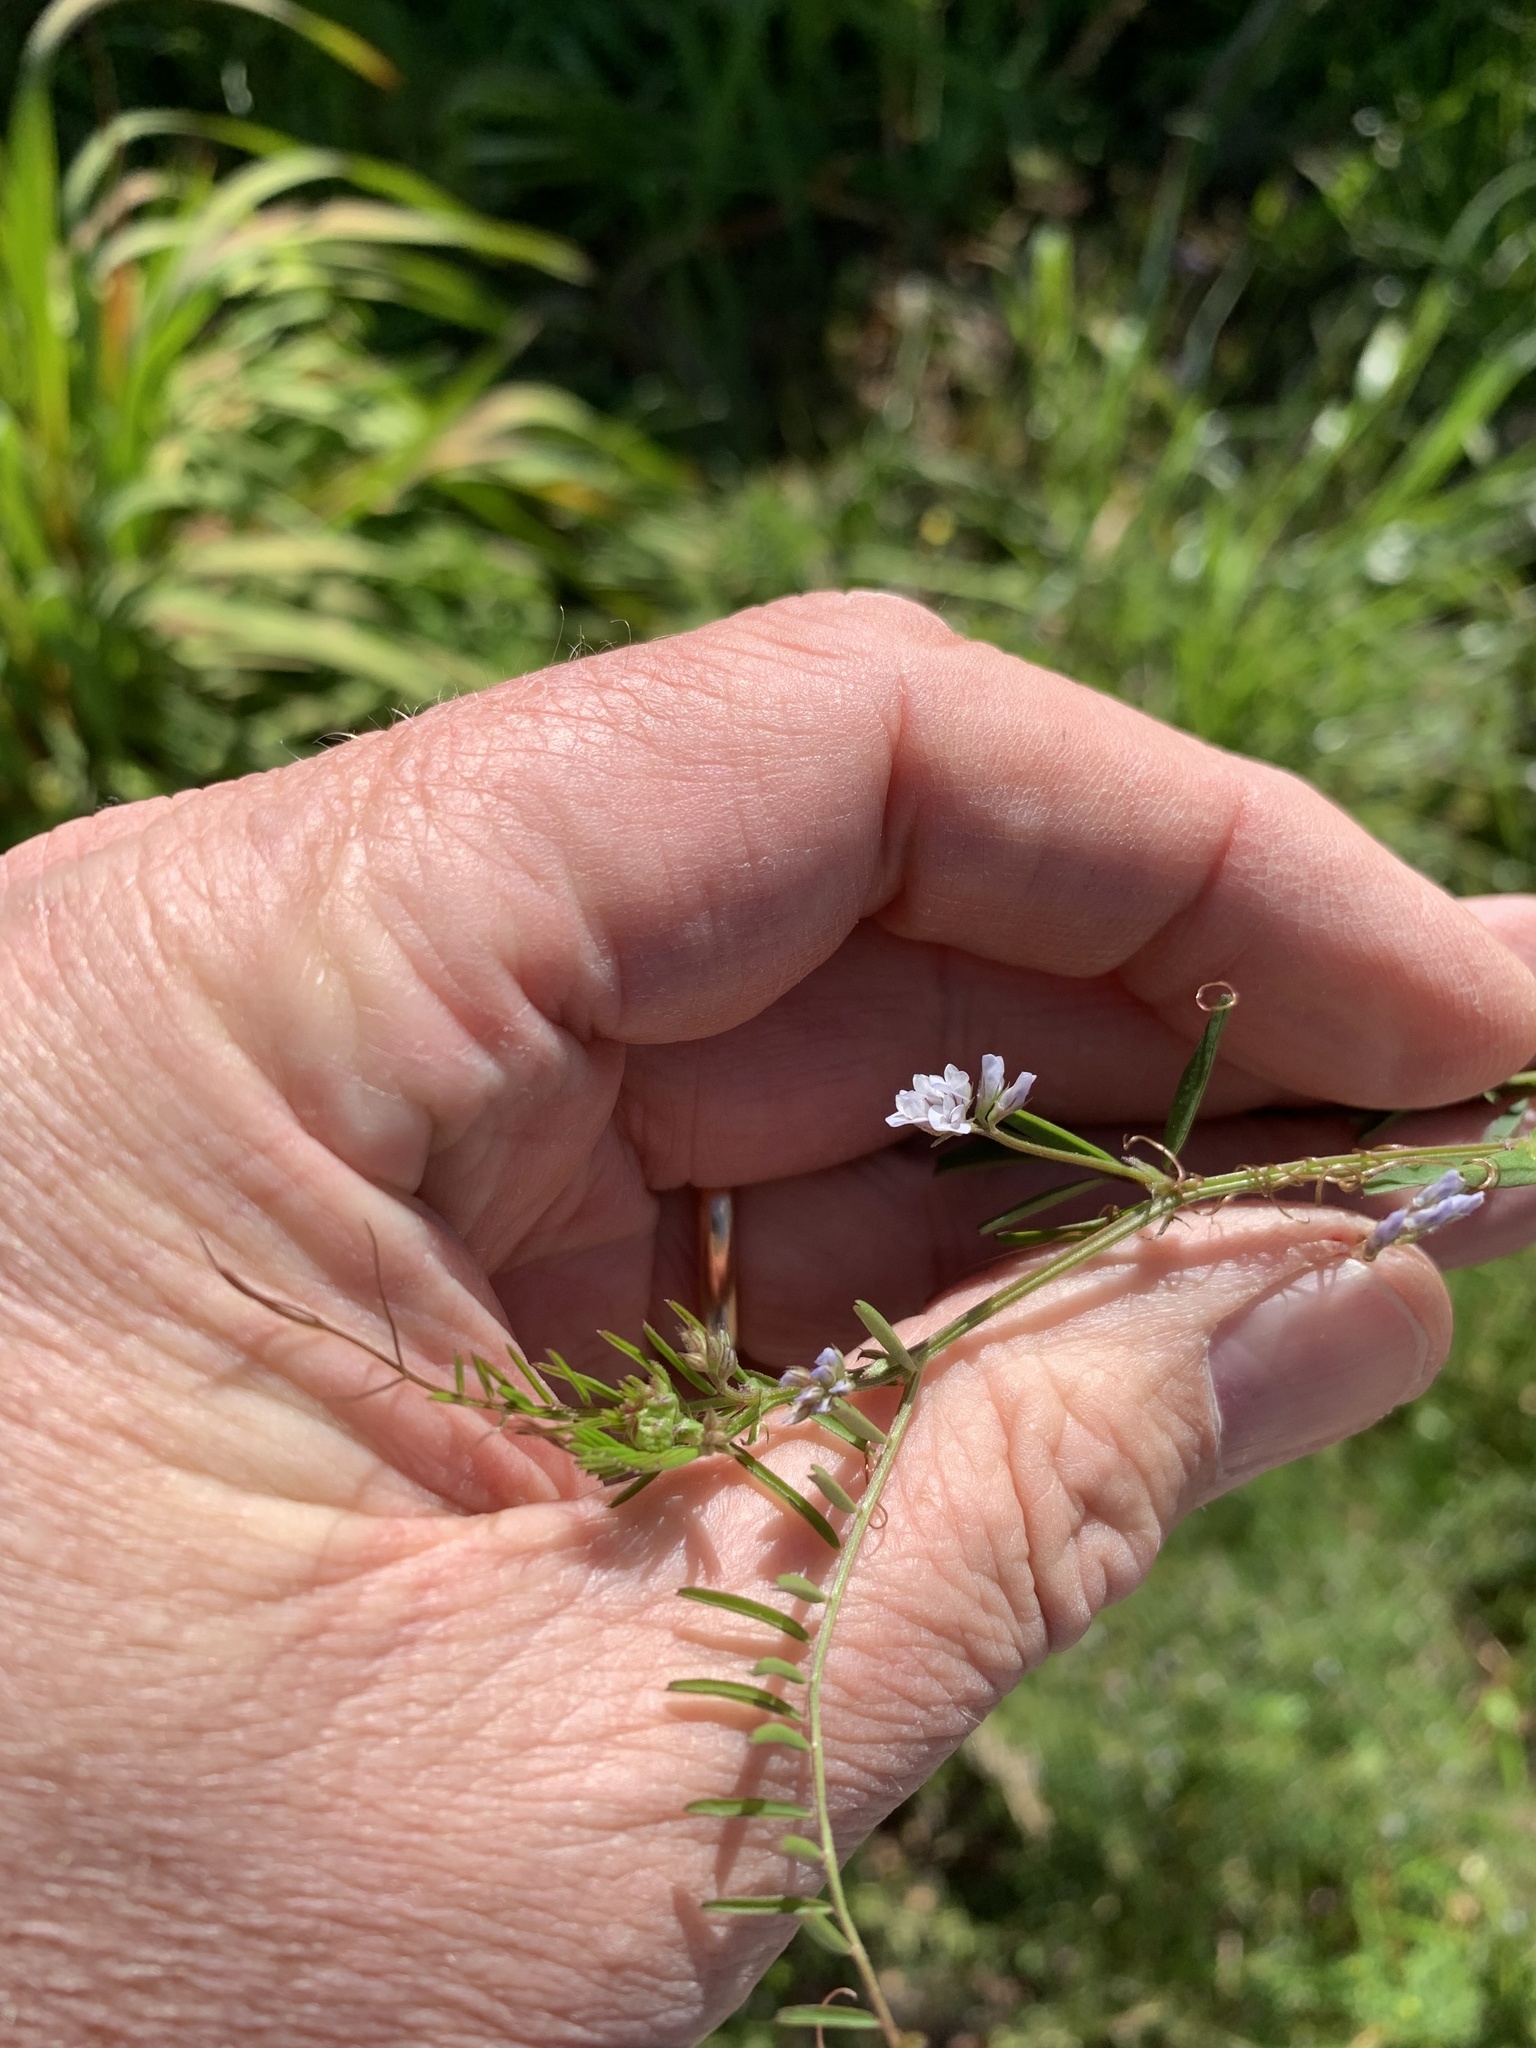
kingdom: Plantae
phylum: Tracheophyta
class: Magnoliopsida
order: Fabales
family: Fabaceae
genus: Vicia
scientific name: Vicia hirsuta
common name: Tiny vetch
